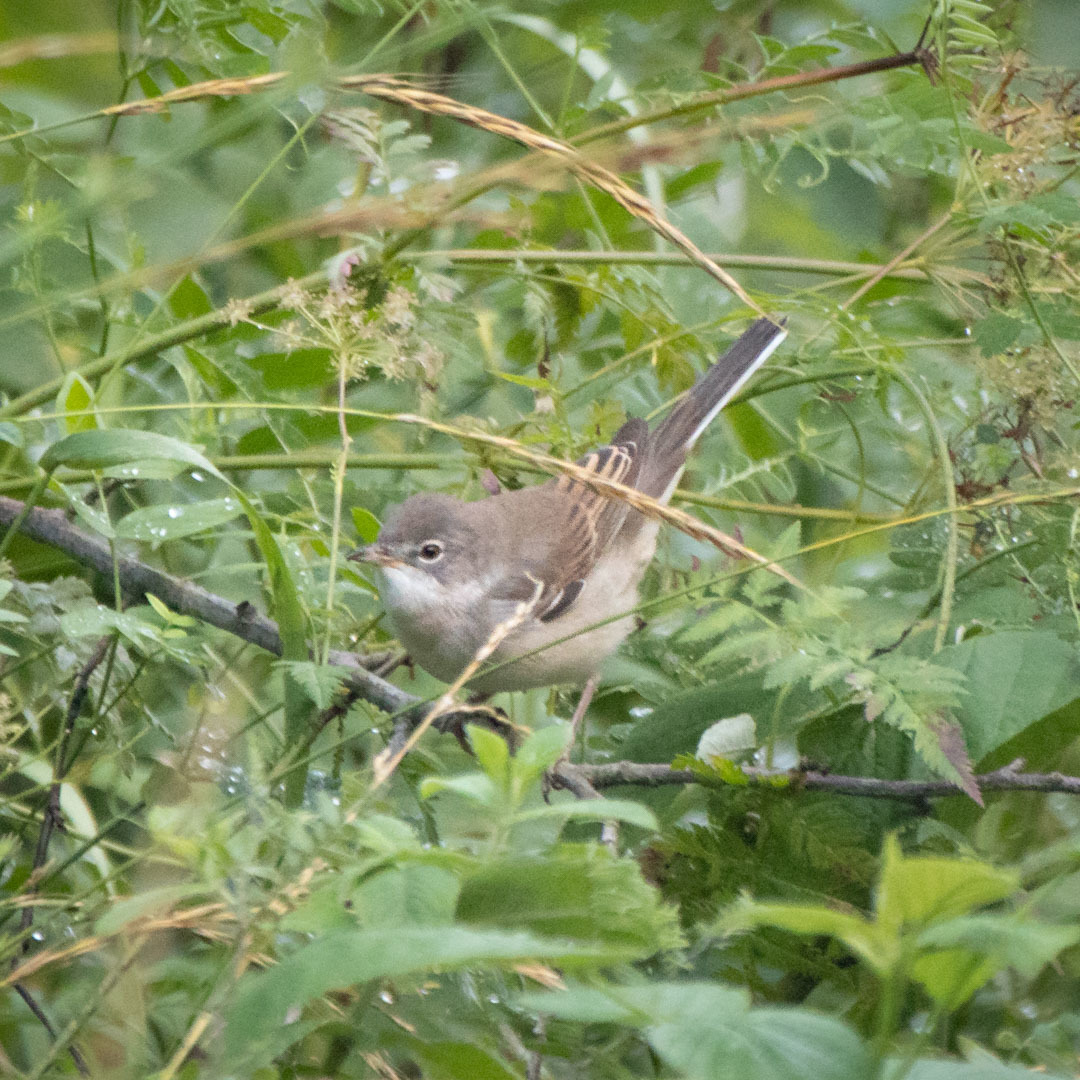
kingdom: Animalia
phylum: Chordata
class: Aves
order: Passeriformes
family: Sylviidae
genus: Sylvia
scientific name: Sylvia communis
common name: Common whitethroat
